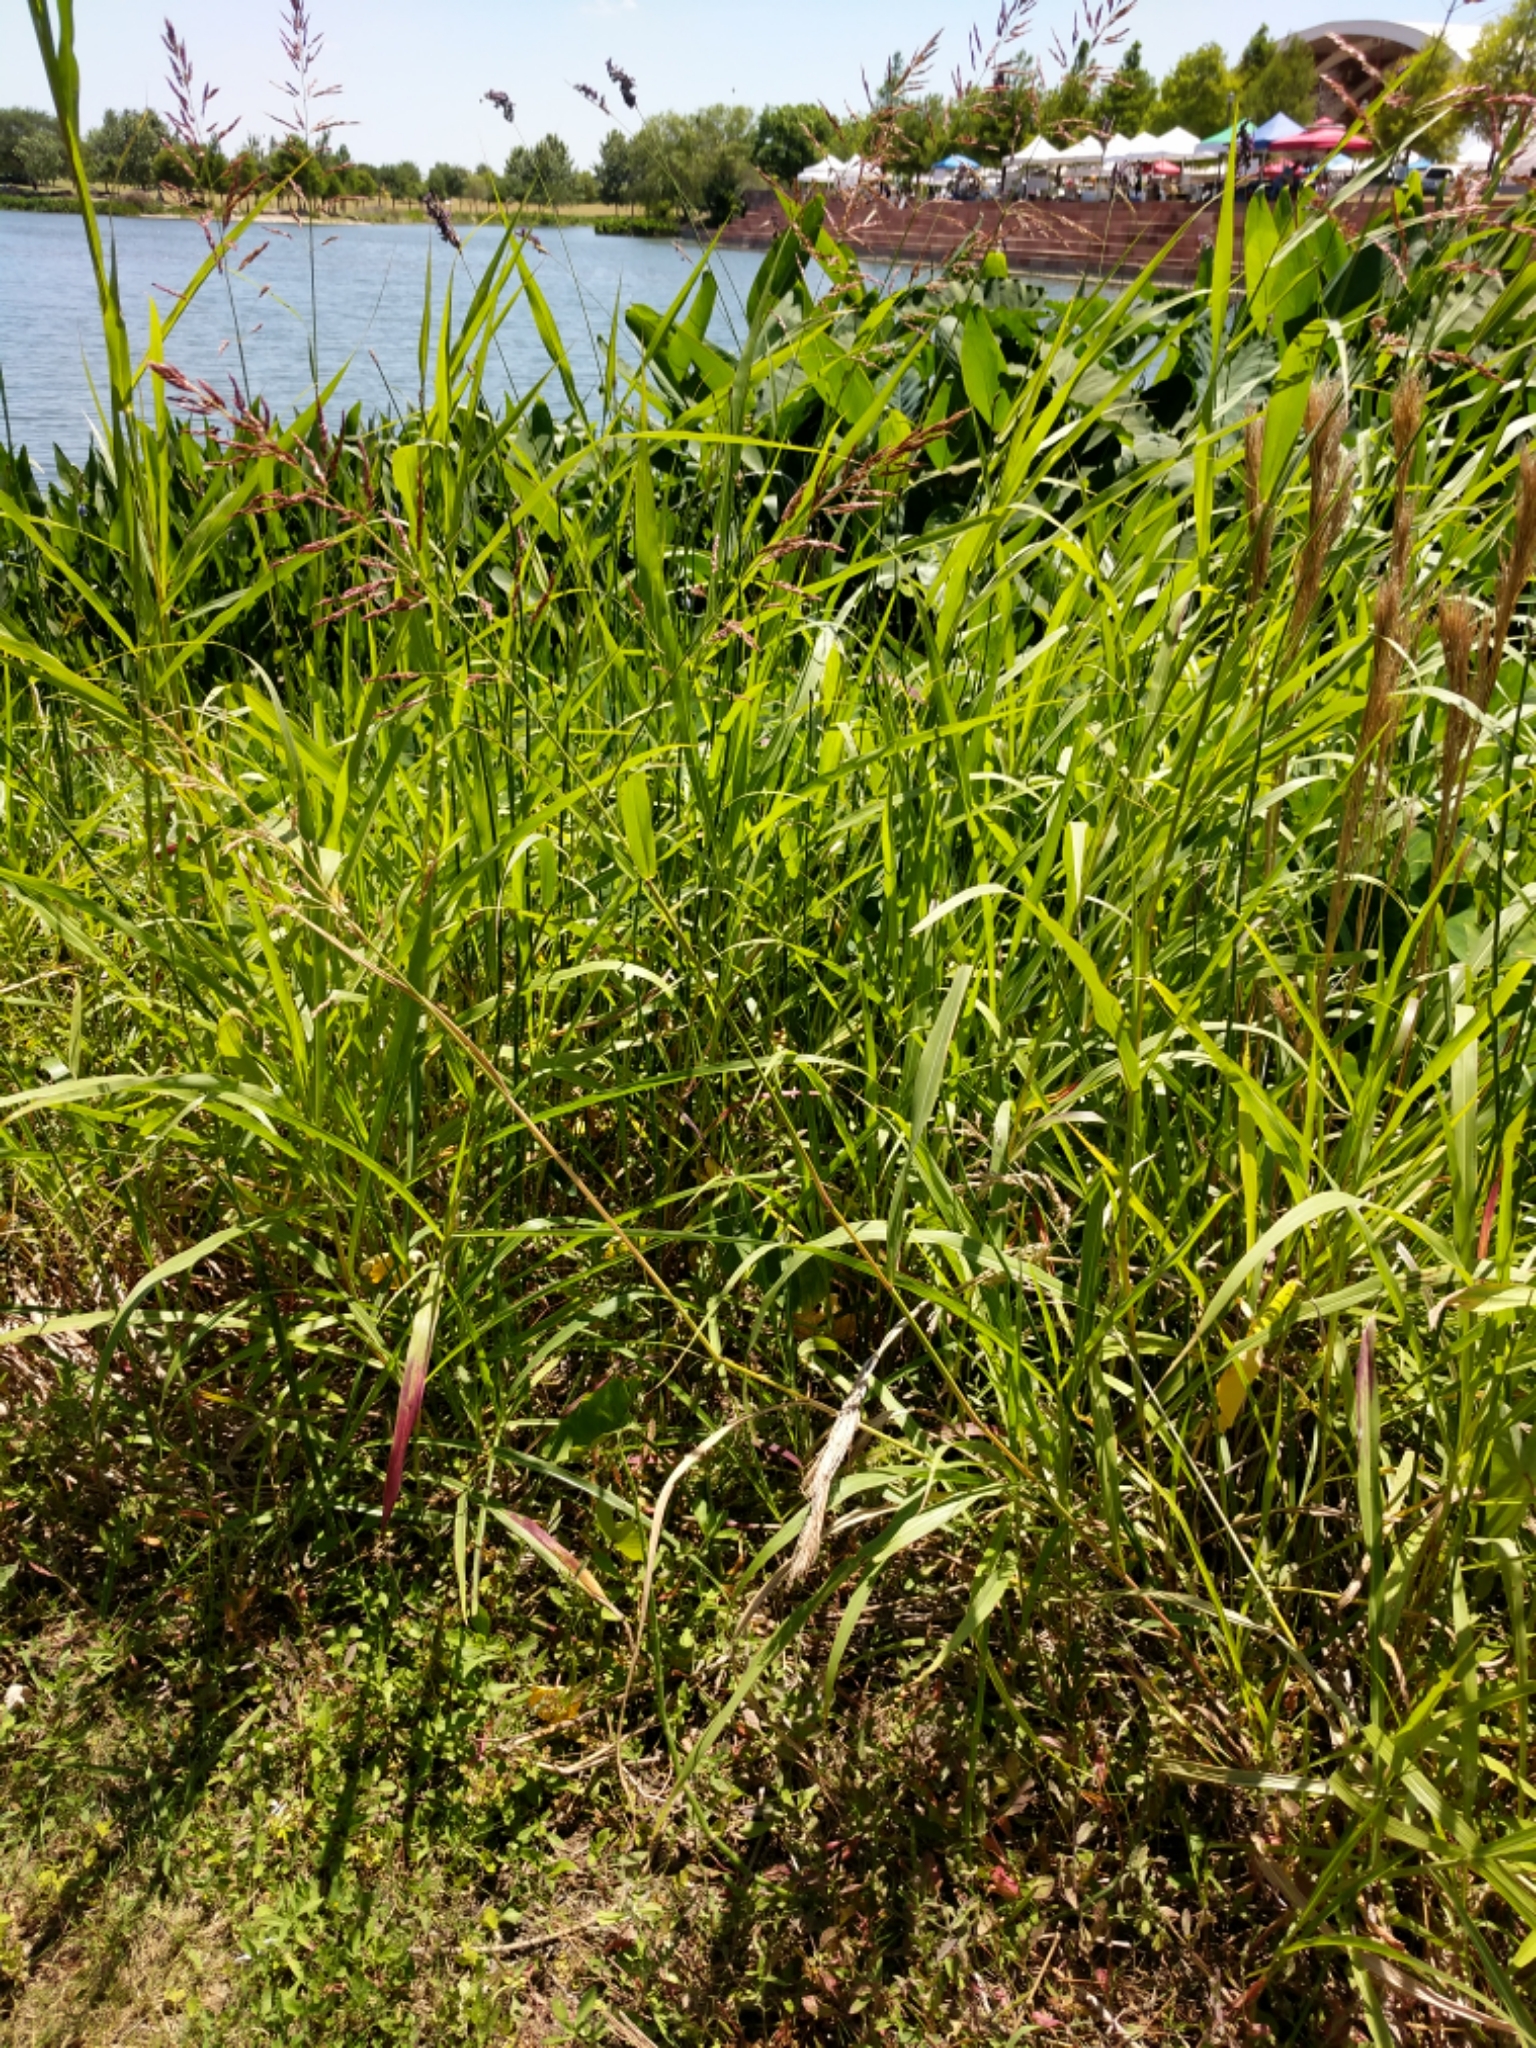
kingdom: Plantae
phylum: Tracheophyta
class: Liliopsida
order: Poales
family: Poaceae
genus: Sorghum
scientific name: Sorghum halepense
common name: Johnson-grass
